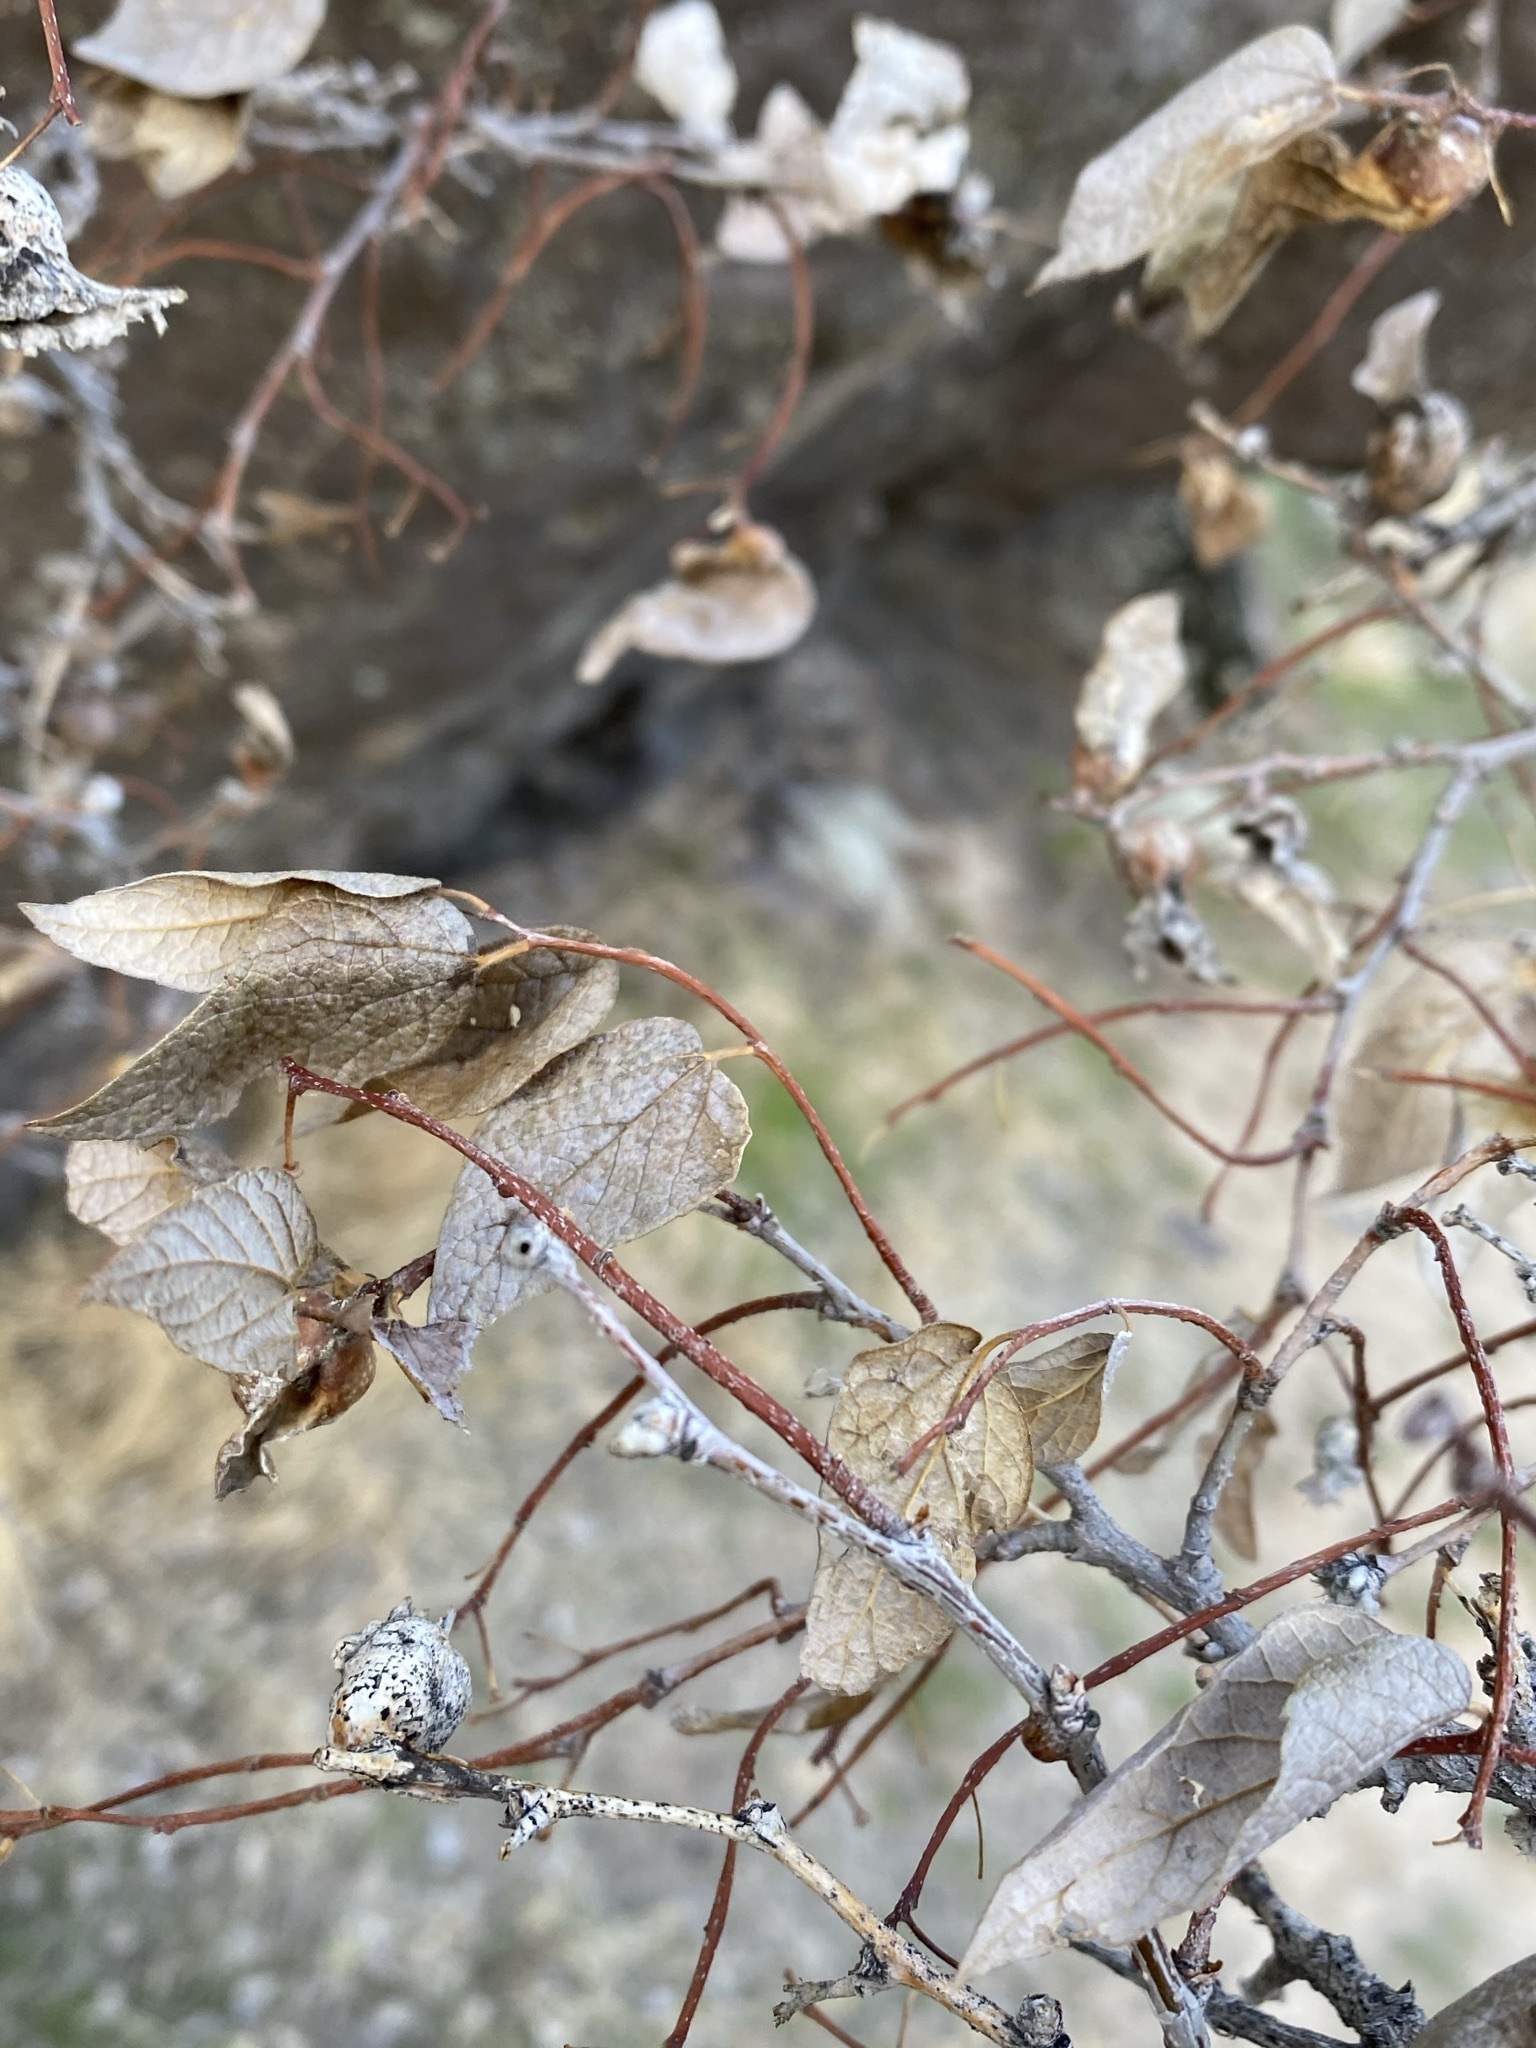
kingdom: Plantae
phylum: Tracheophyta
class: Magnoliopsida
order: Rosales
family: Cannabaceae
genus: Celtis
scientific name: Celtis reticulata
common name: Netleaf hackberry
